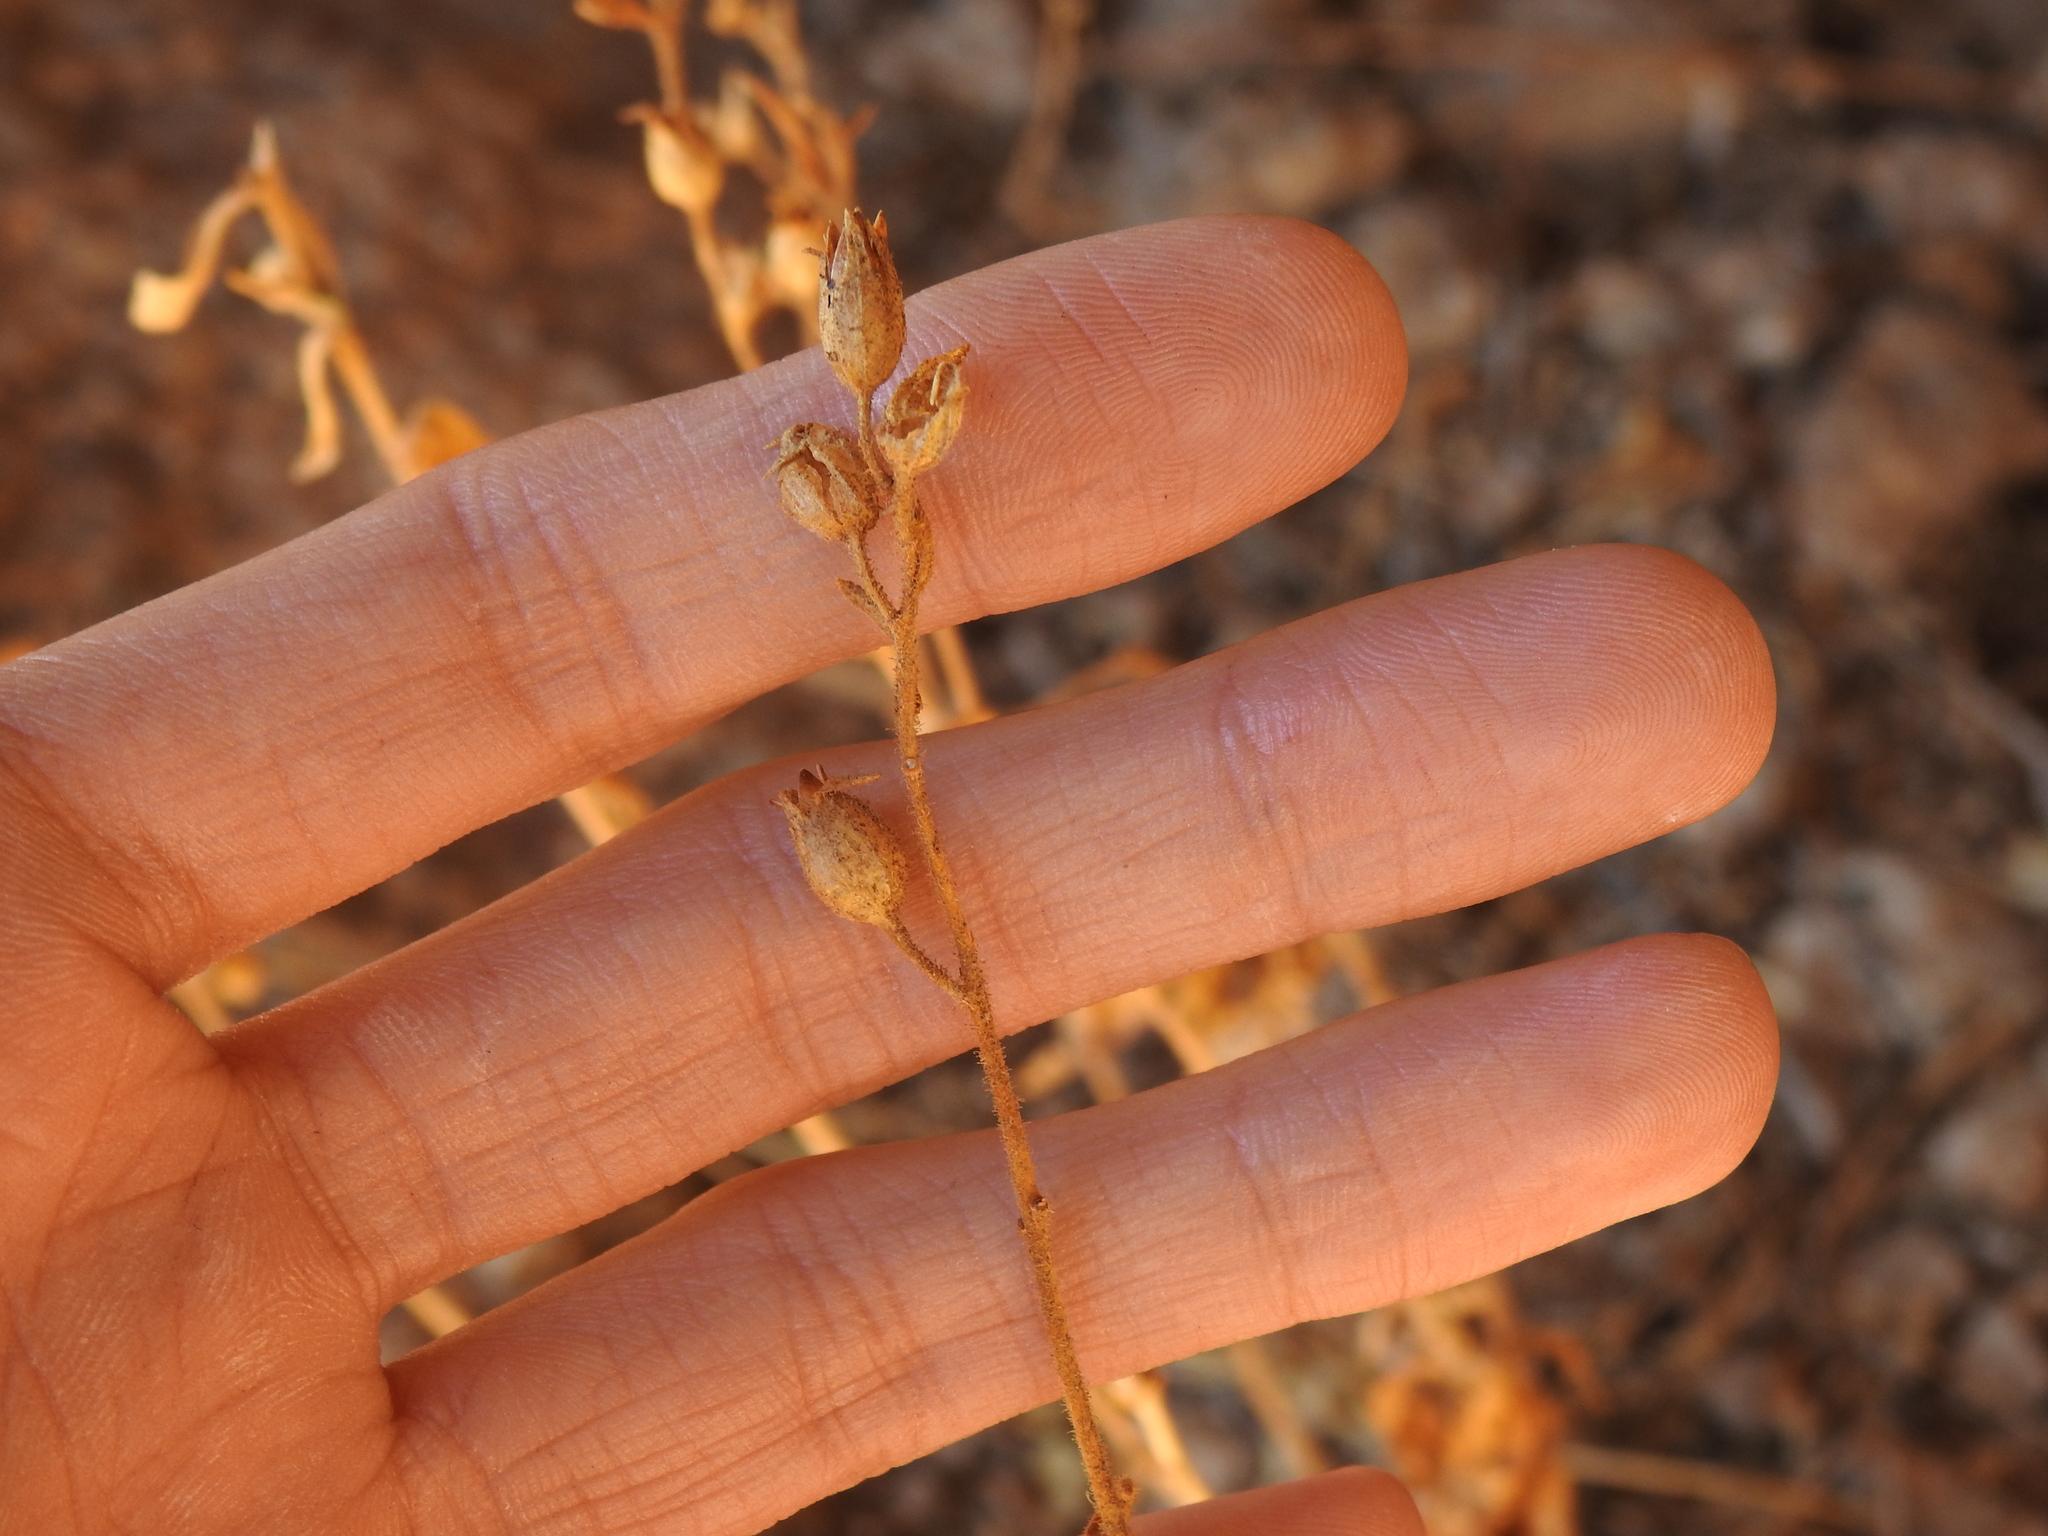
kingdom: Plantae
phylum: Tracheophyta
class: Magnoliopsida
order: Solanales
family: Solanaceae
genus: Nicotiana
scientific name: Nicotiana obtusifolia
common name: Desert tobacco
